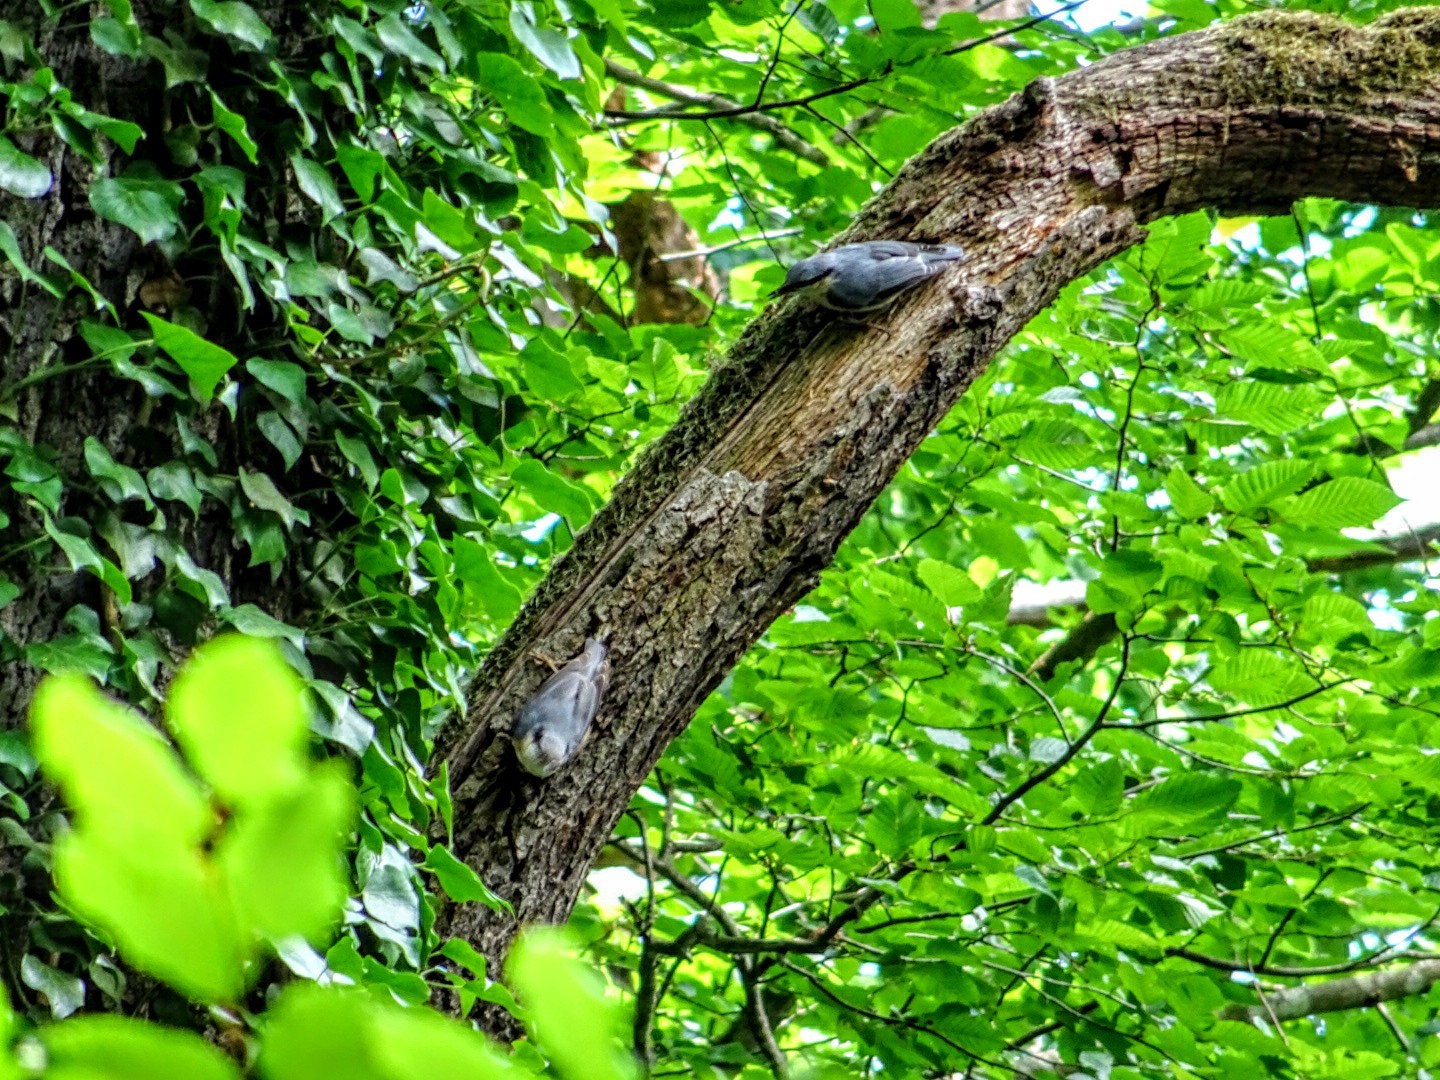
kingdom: Animalia
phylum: Chordata
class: Aves
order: Passeriformes
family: Sittidae
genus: Sitta
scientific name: Sitta europaea
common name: Eurasian nuthatch
